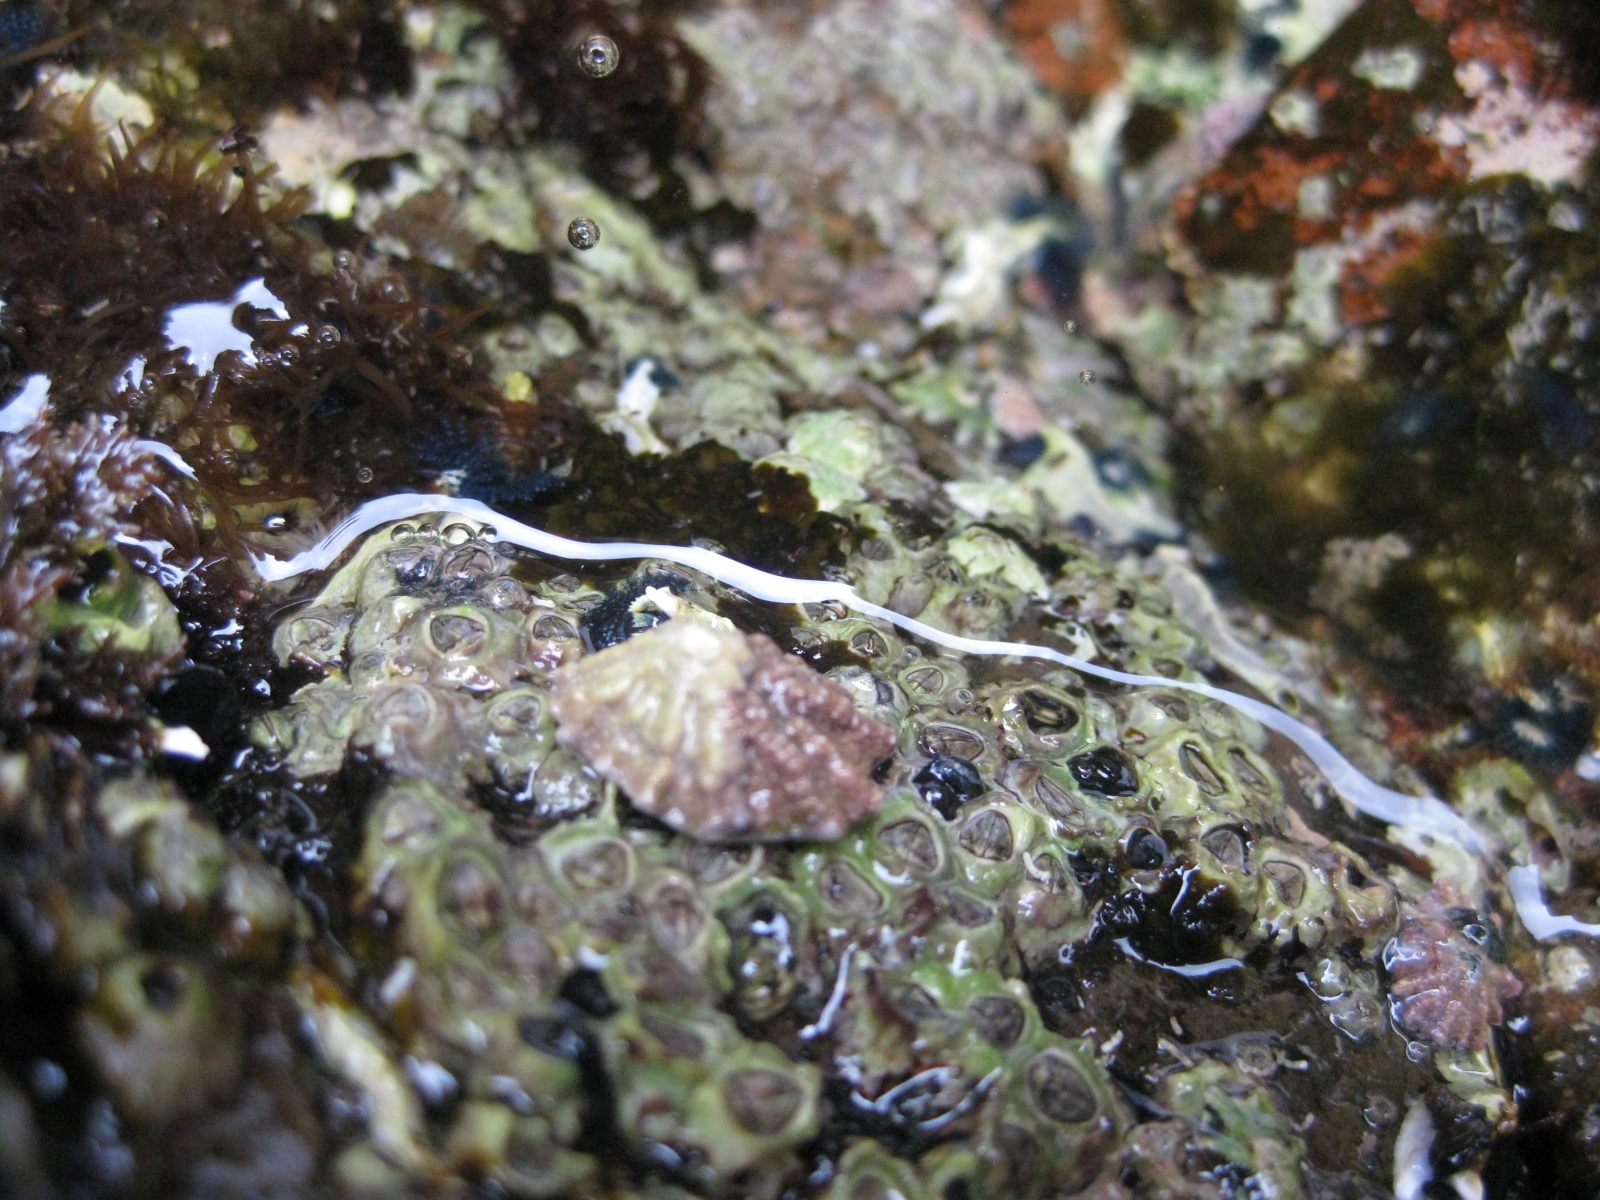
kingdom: Animalia
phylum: Mollusca
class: Gastropoda
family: Lottiidae
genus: Patelloida
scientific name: Patelloida corticata
